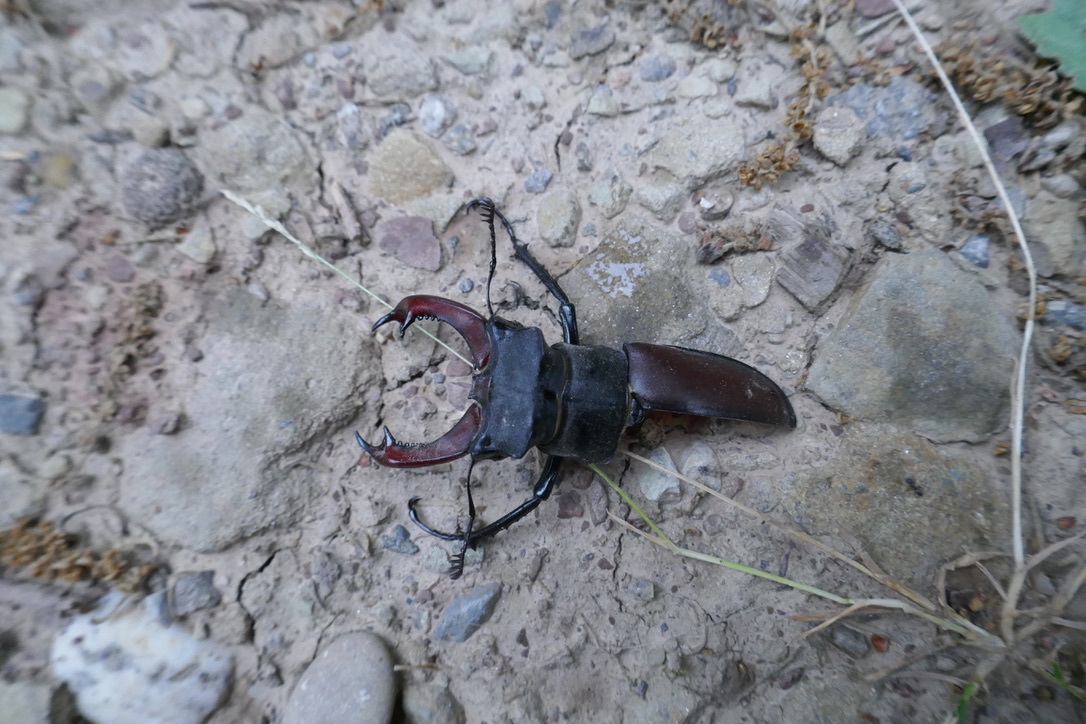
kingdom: Animalia
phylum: Arthropoda
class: Insecta
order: Coleoptera
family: Lucanidae
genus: Lucanus
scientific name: Lucanus cervus
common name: Stag beetle
